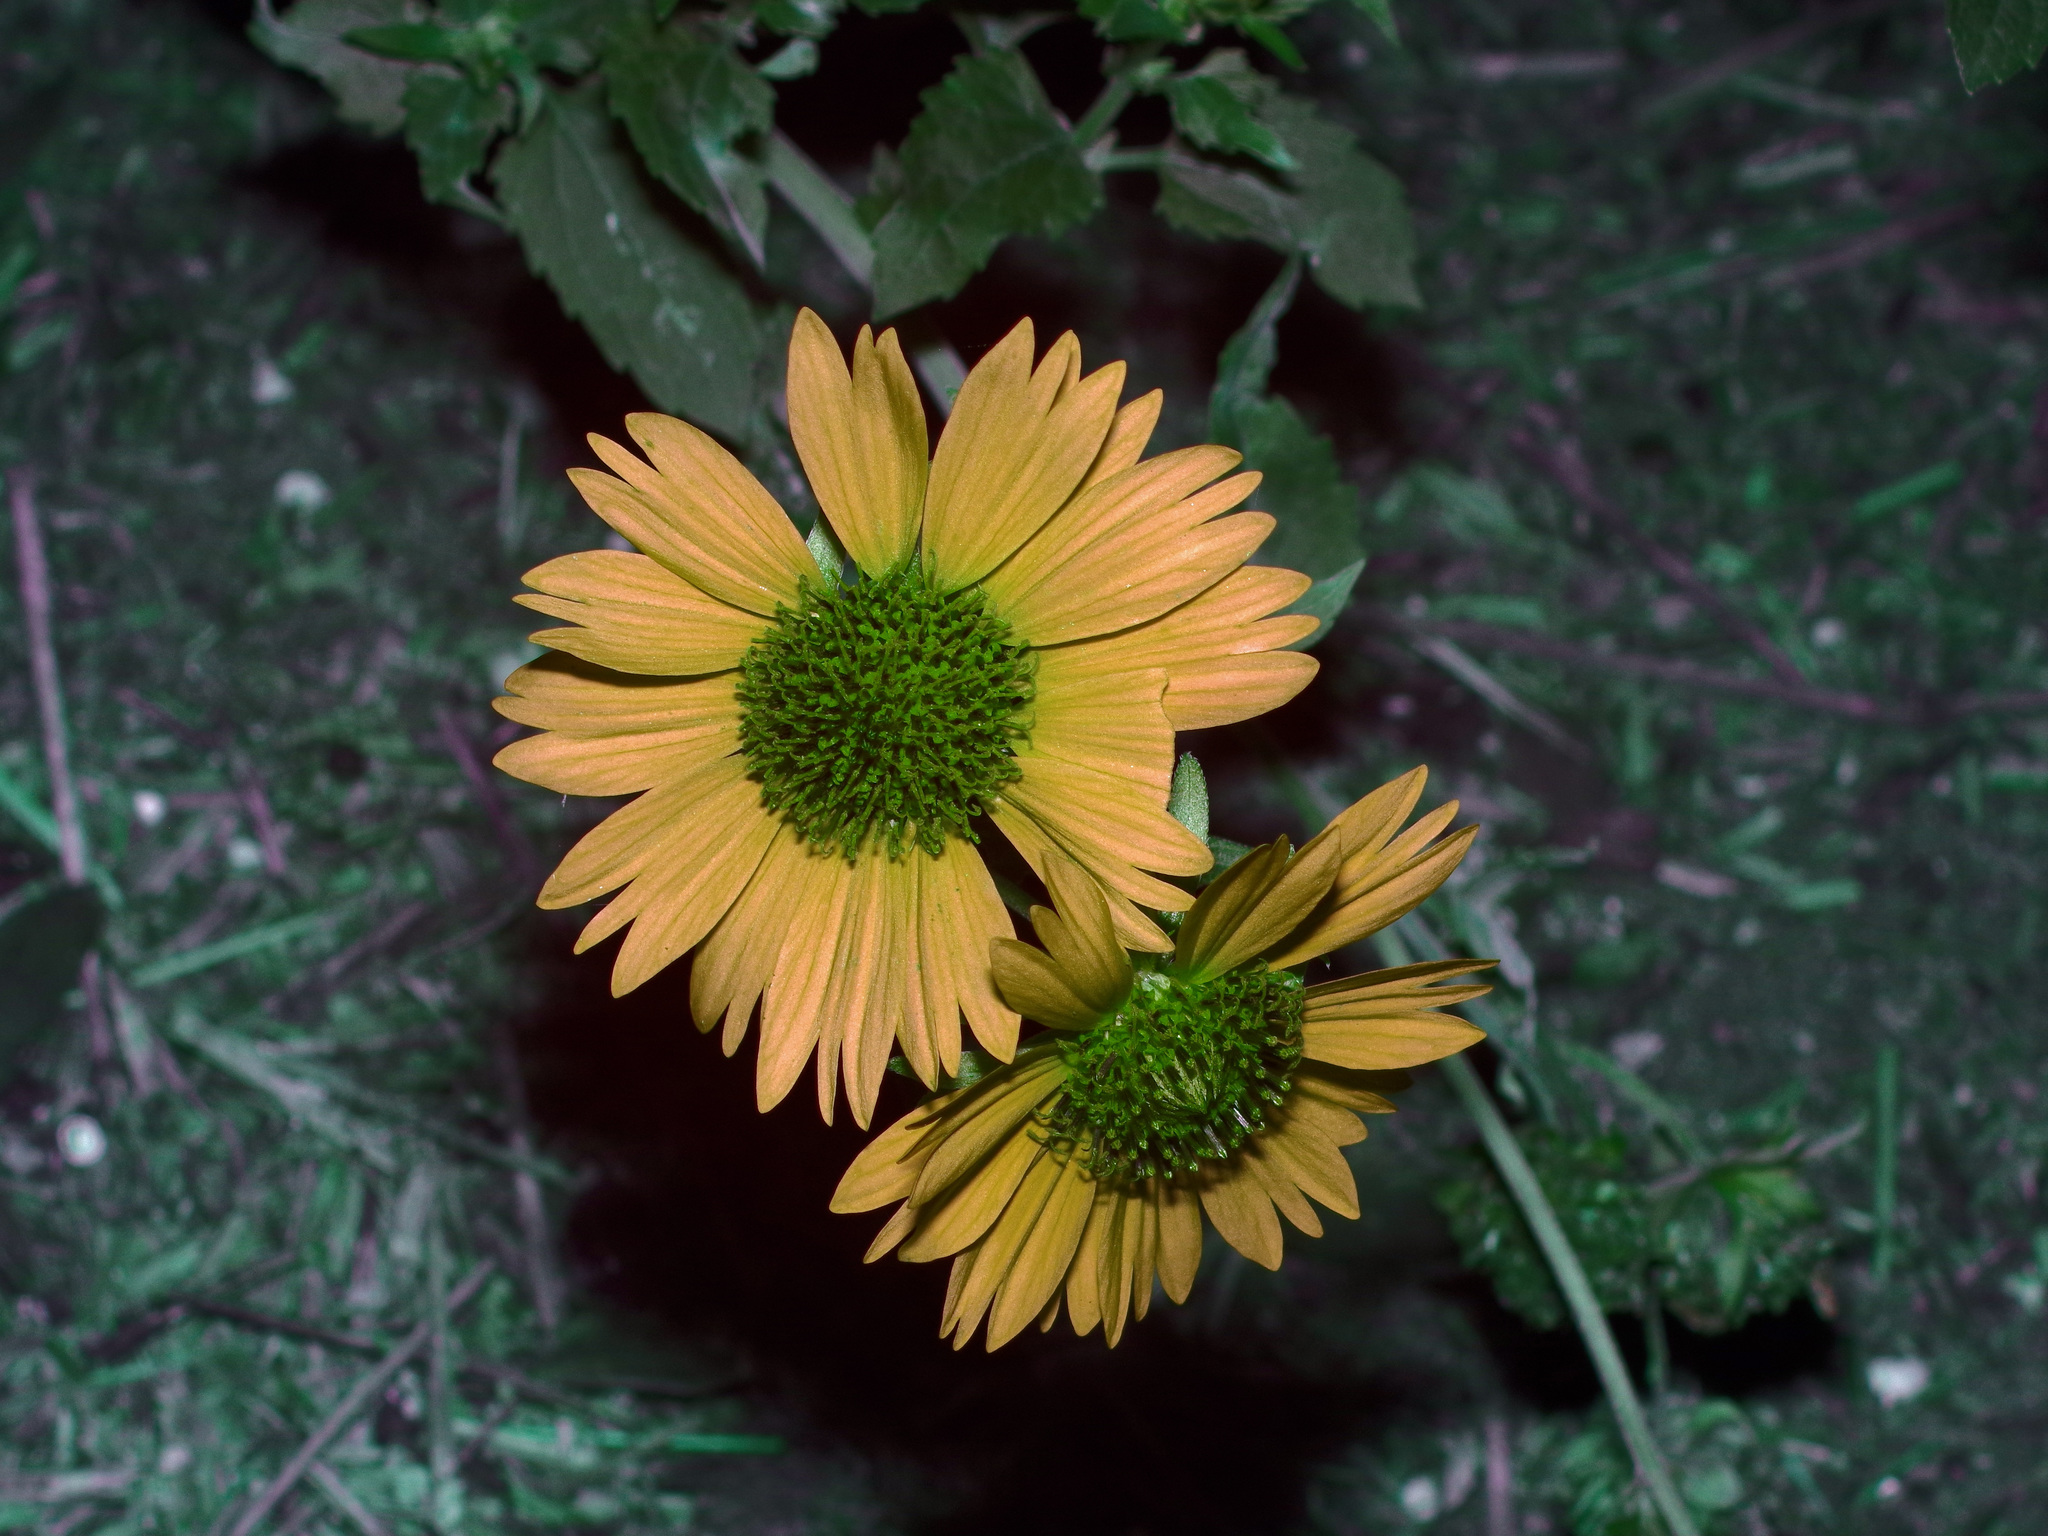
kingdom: Plantae
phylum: Tracheophyta
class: Magnoliopsida
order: Asterales
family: Asteraceae
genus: Verbesina
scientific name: Verbesina encelioides
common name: Golden crownbeard
